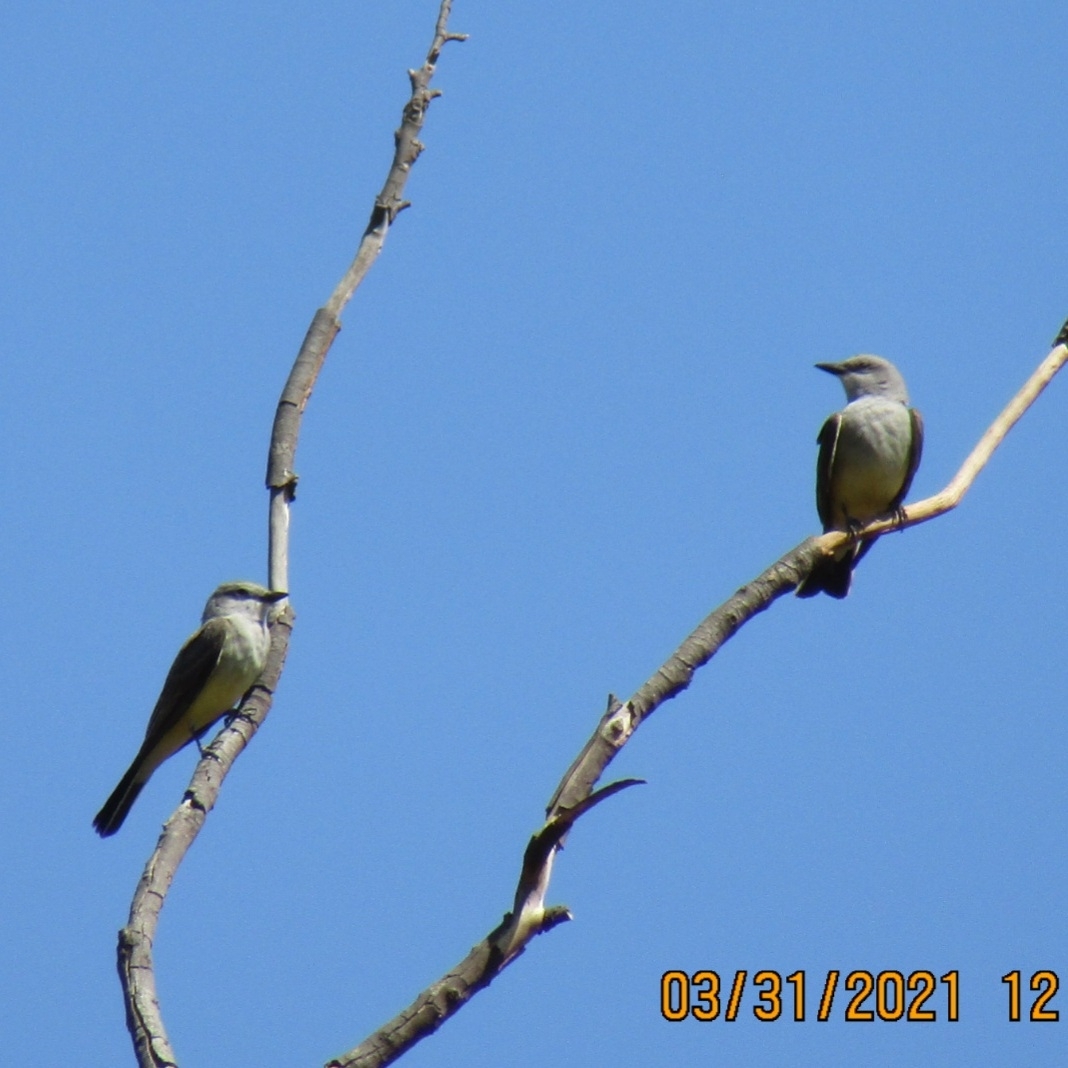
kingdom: Animalia
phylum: Chordata
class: Aves
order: Passeriformes
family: Tyrannidae
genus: Tyrannus
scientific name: Tyrannus verticalis
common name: Western kingbird
